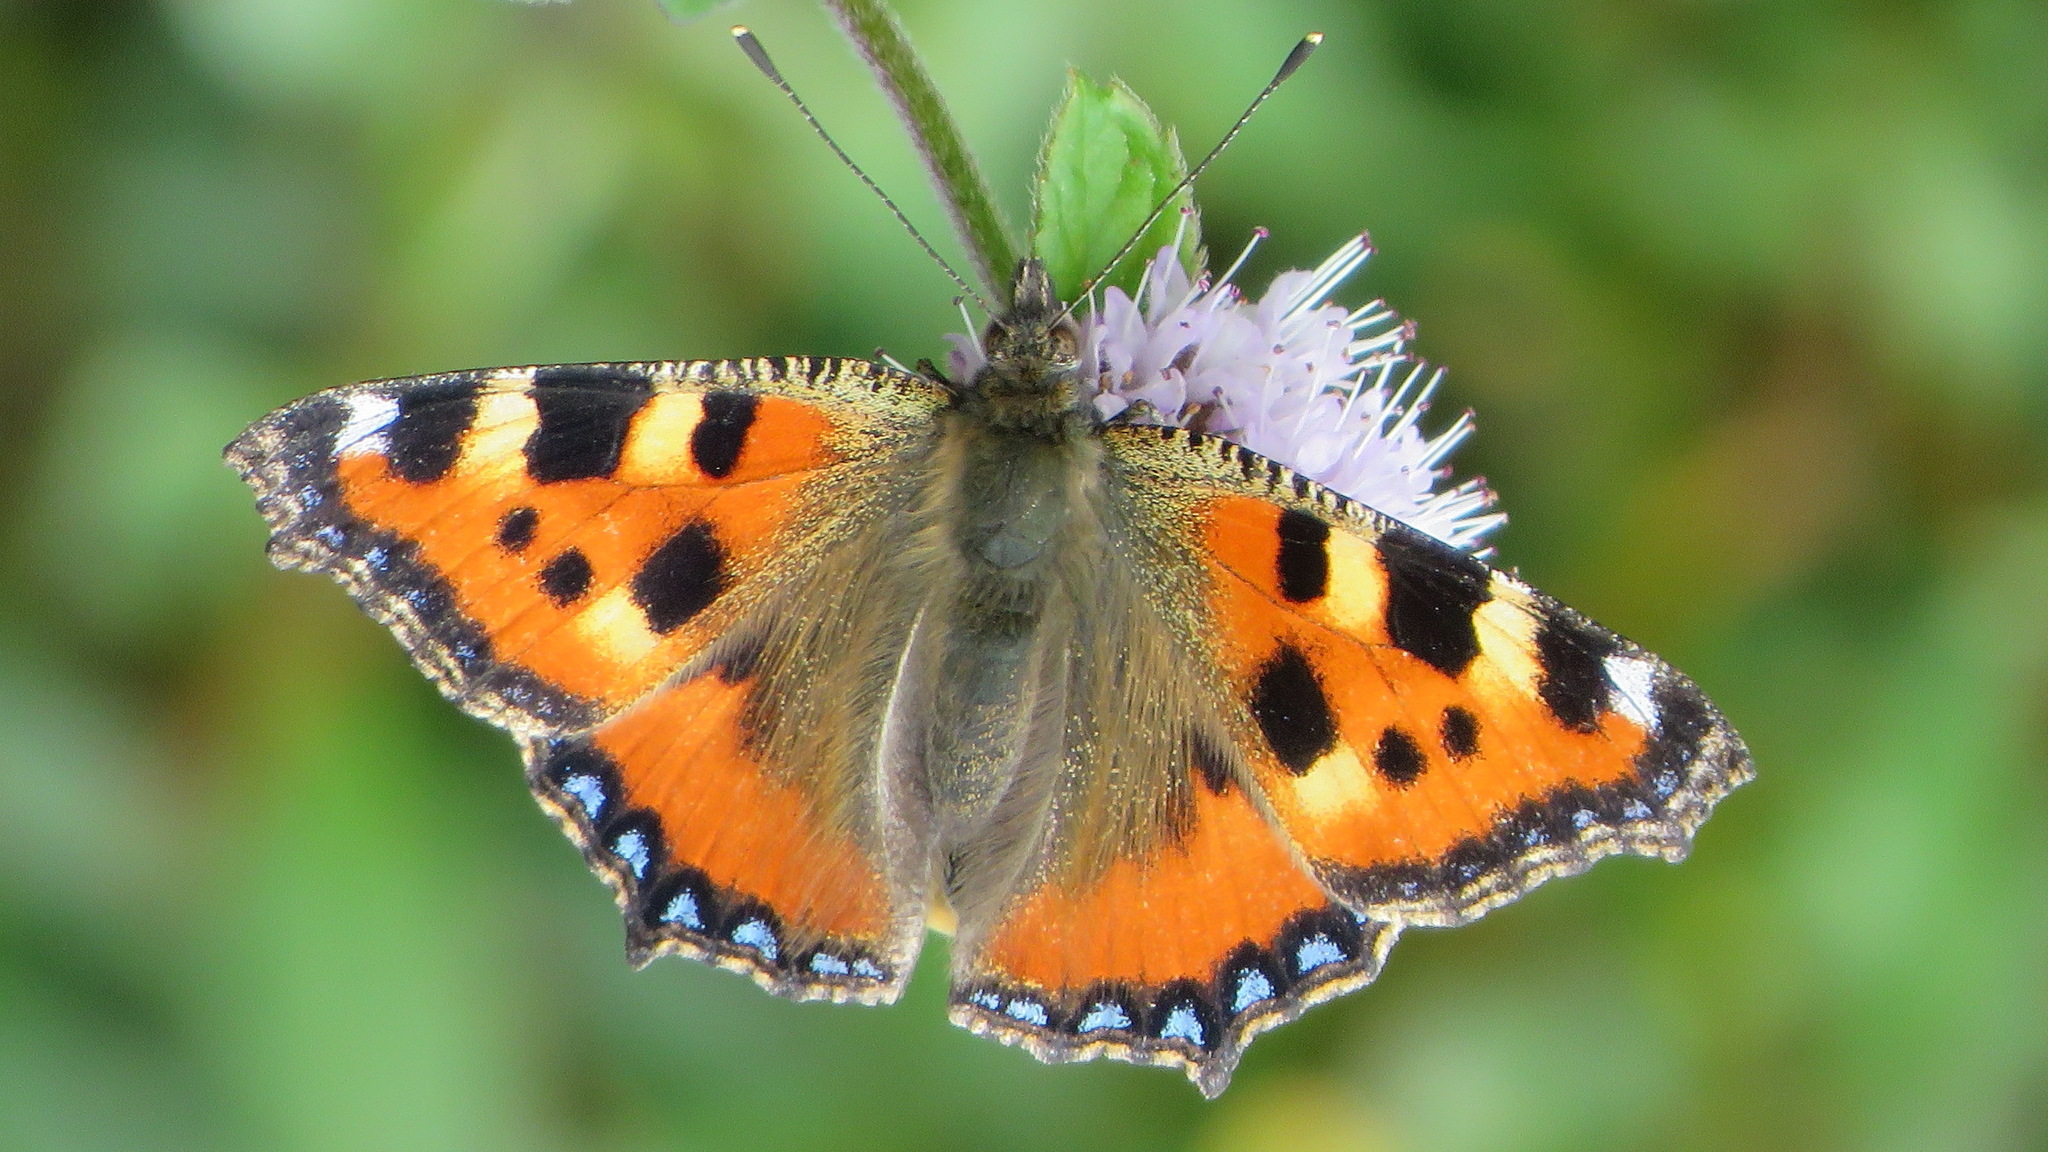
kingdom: Animalia
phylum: Arthropoda
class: Insecta
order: Lepidoptera
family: Nymphalidae
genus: Aglais
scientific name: Aglais urticae
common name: Small tortoiseshell
